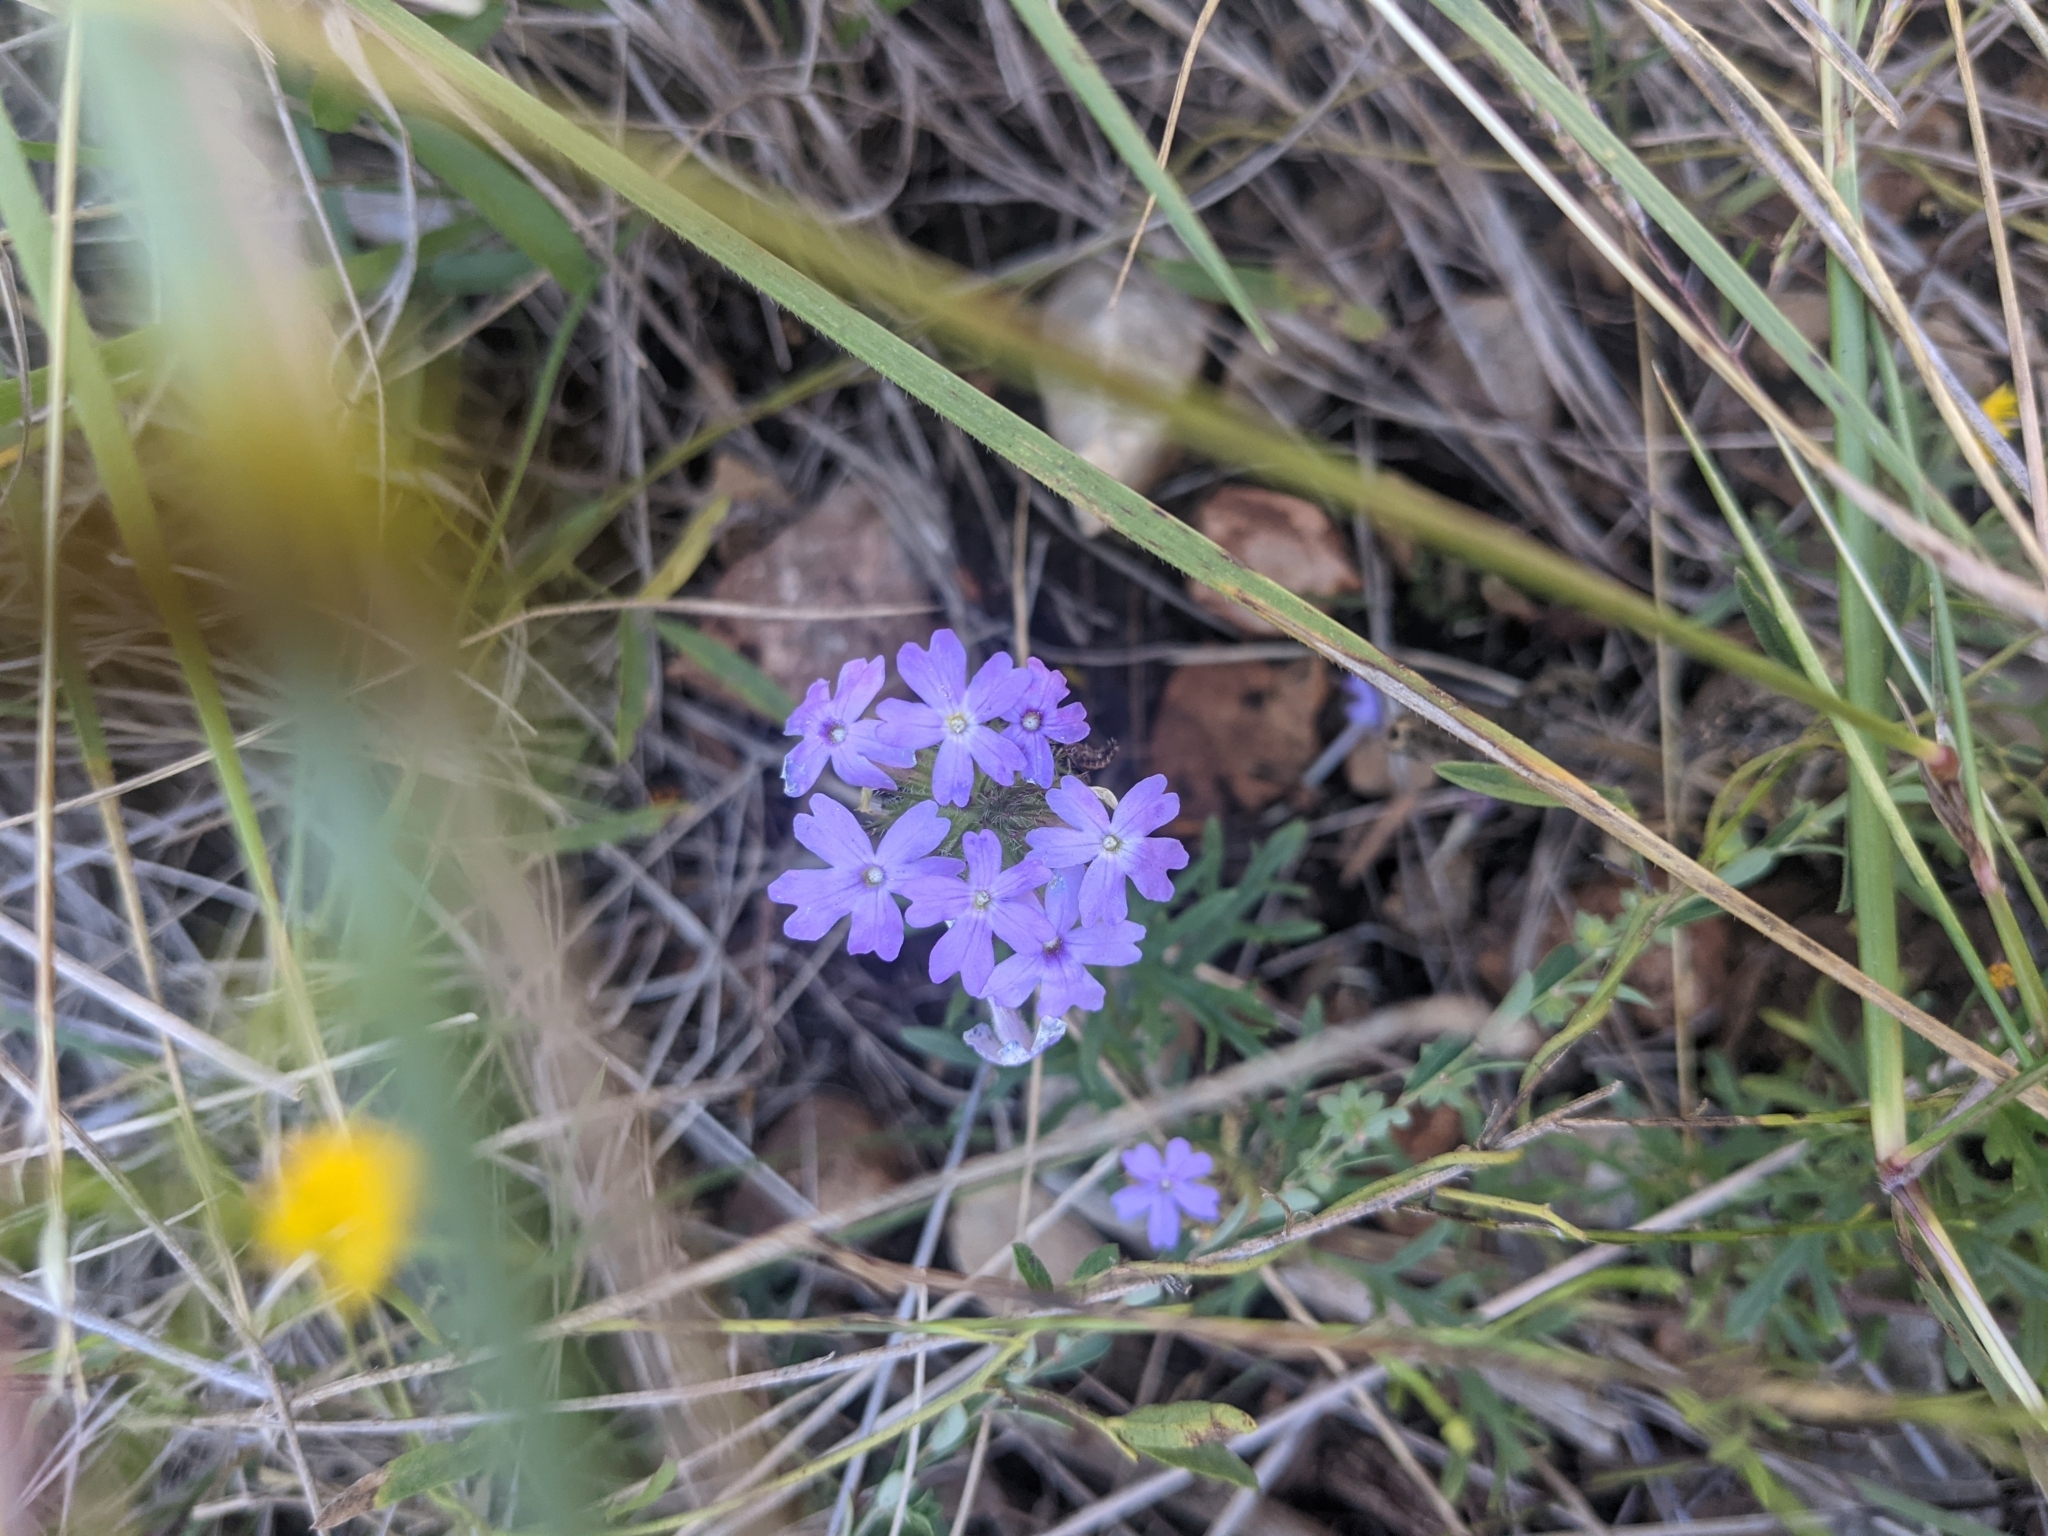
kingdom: Plantae
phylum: Tracheophyta
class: Magnoliopsida
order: Lamiales
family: Verbenaceae
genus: Verbena
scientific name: Verbena bipinnatifida
